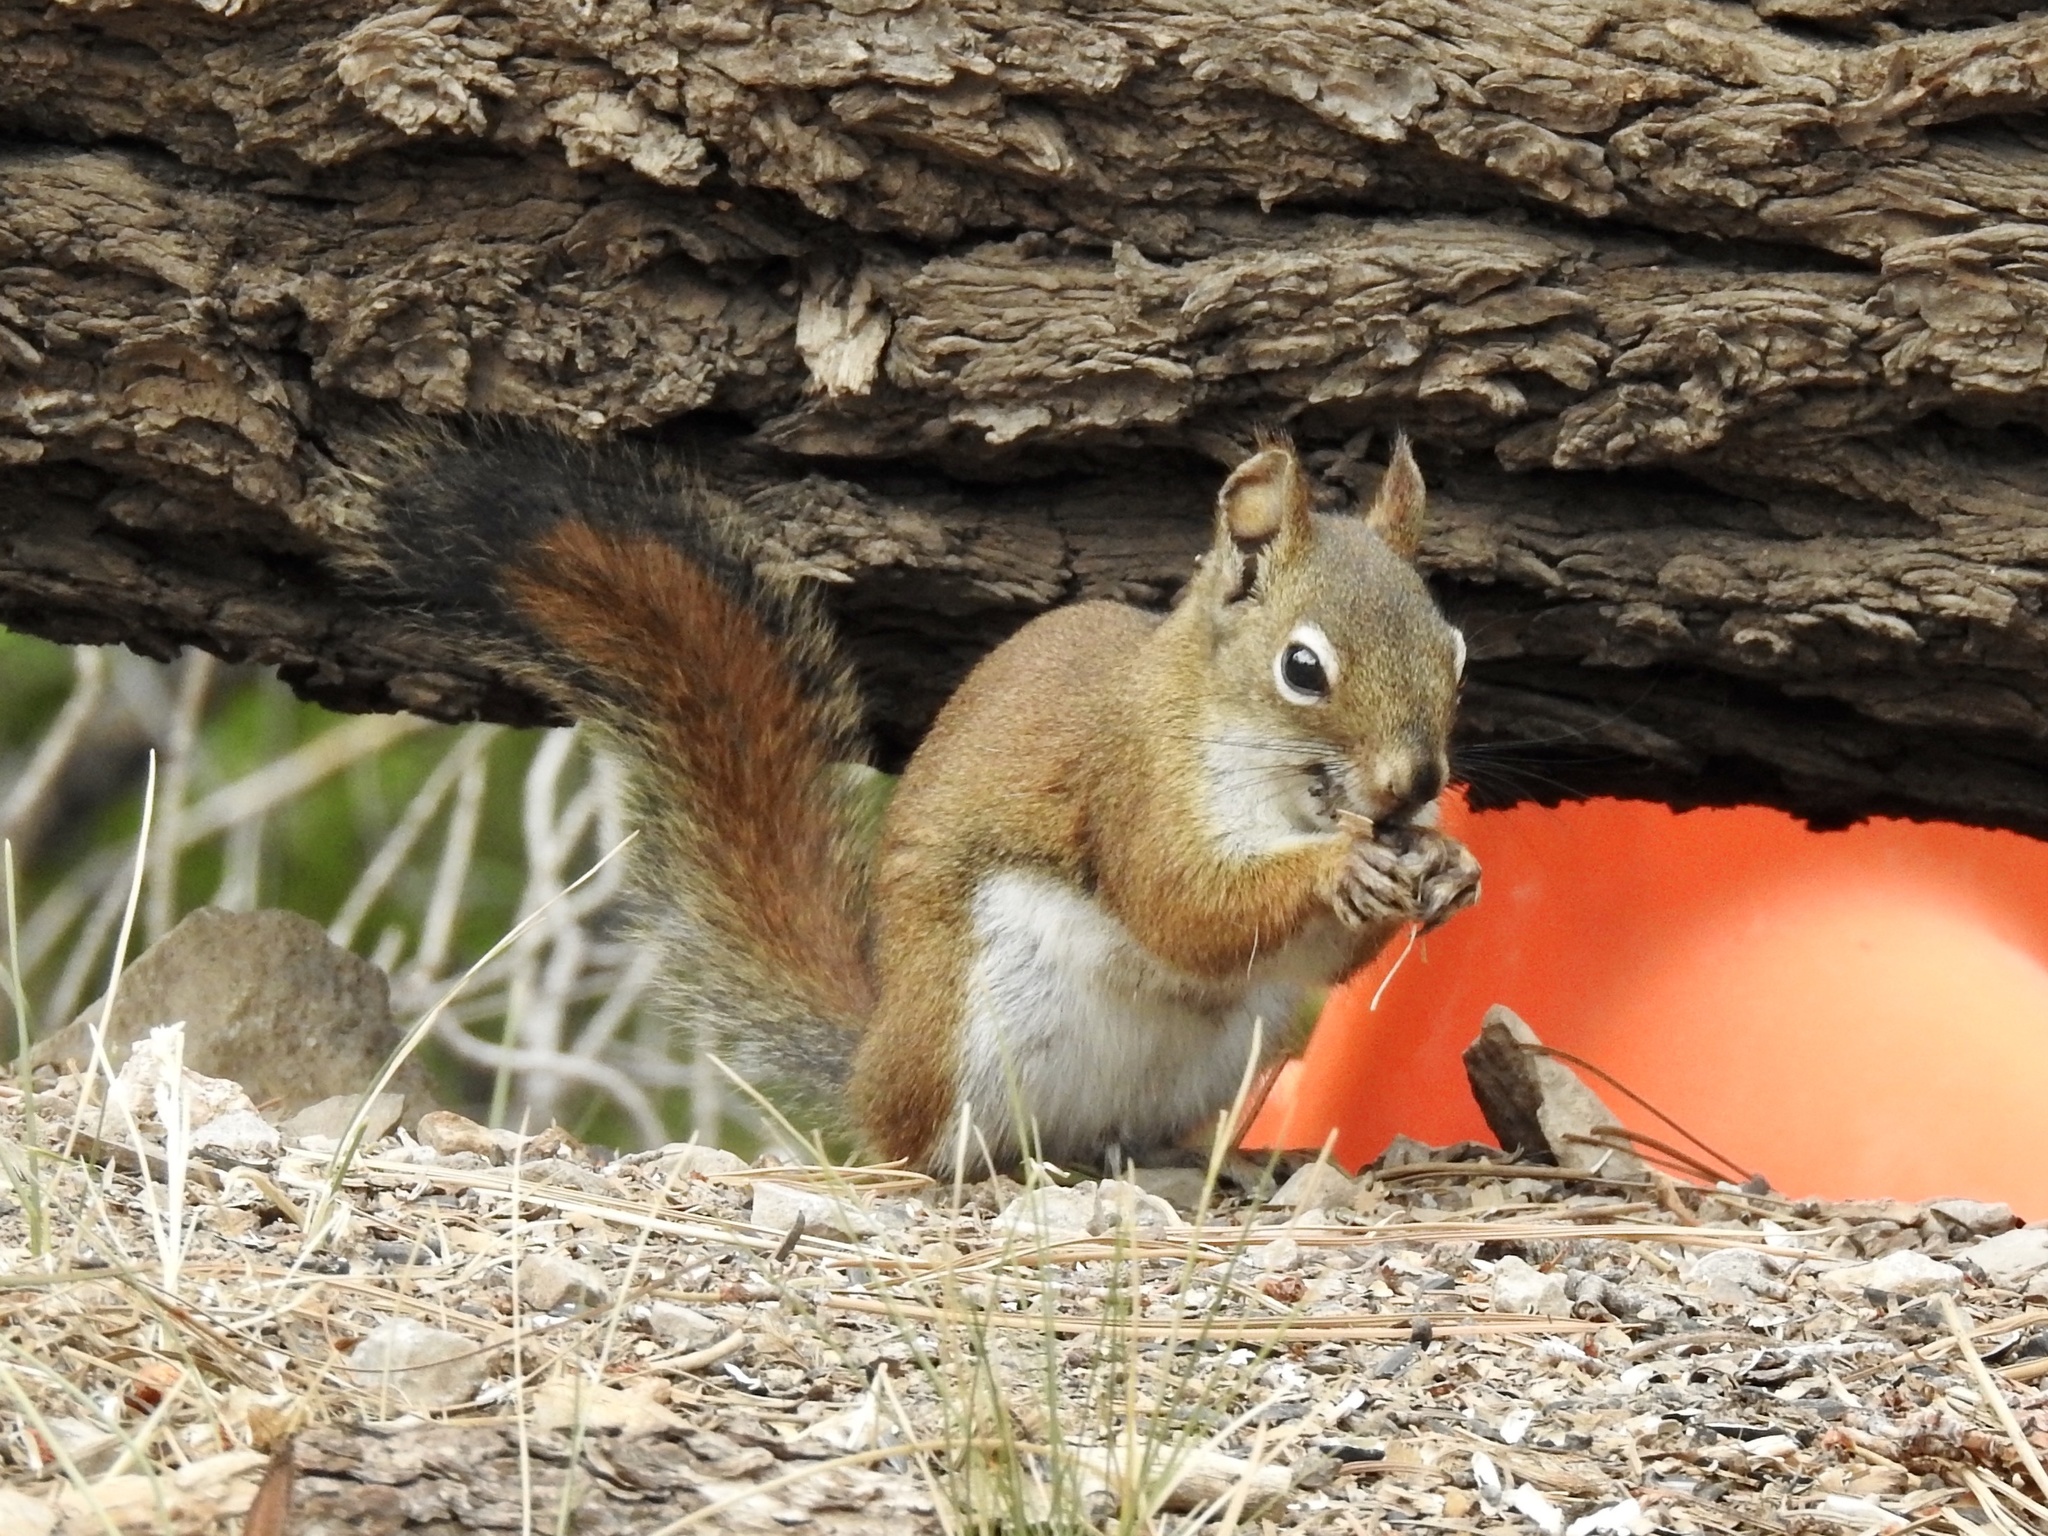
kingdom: Animalia
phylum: Chordata
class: Mammalia
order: Rodentia
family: Sciuridae
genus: Tamiasciurus
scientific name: Tamiasciurus hudsonicus
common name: Red squirrel
